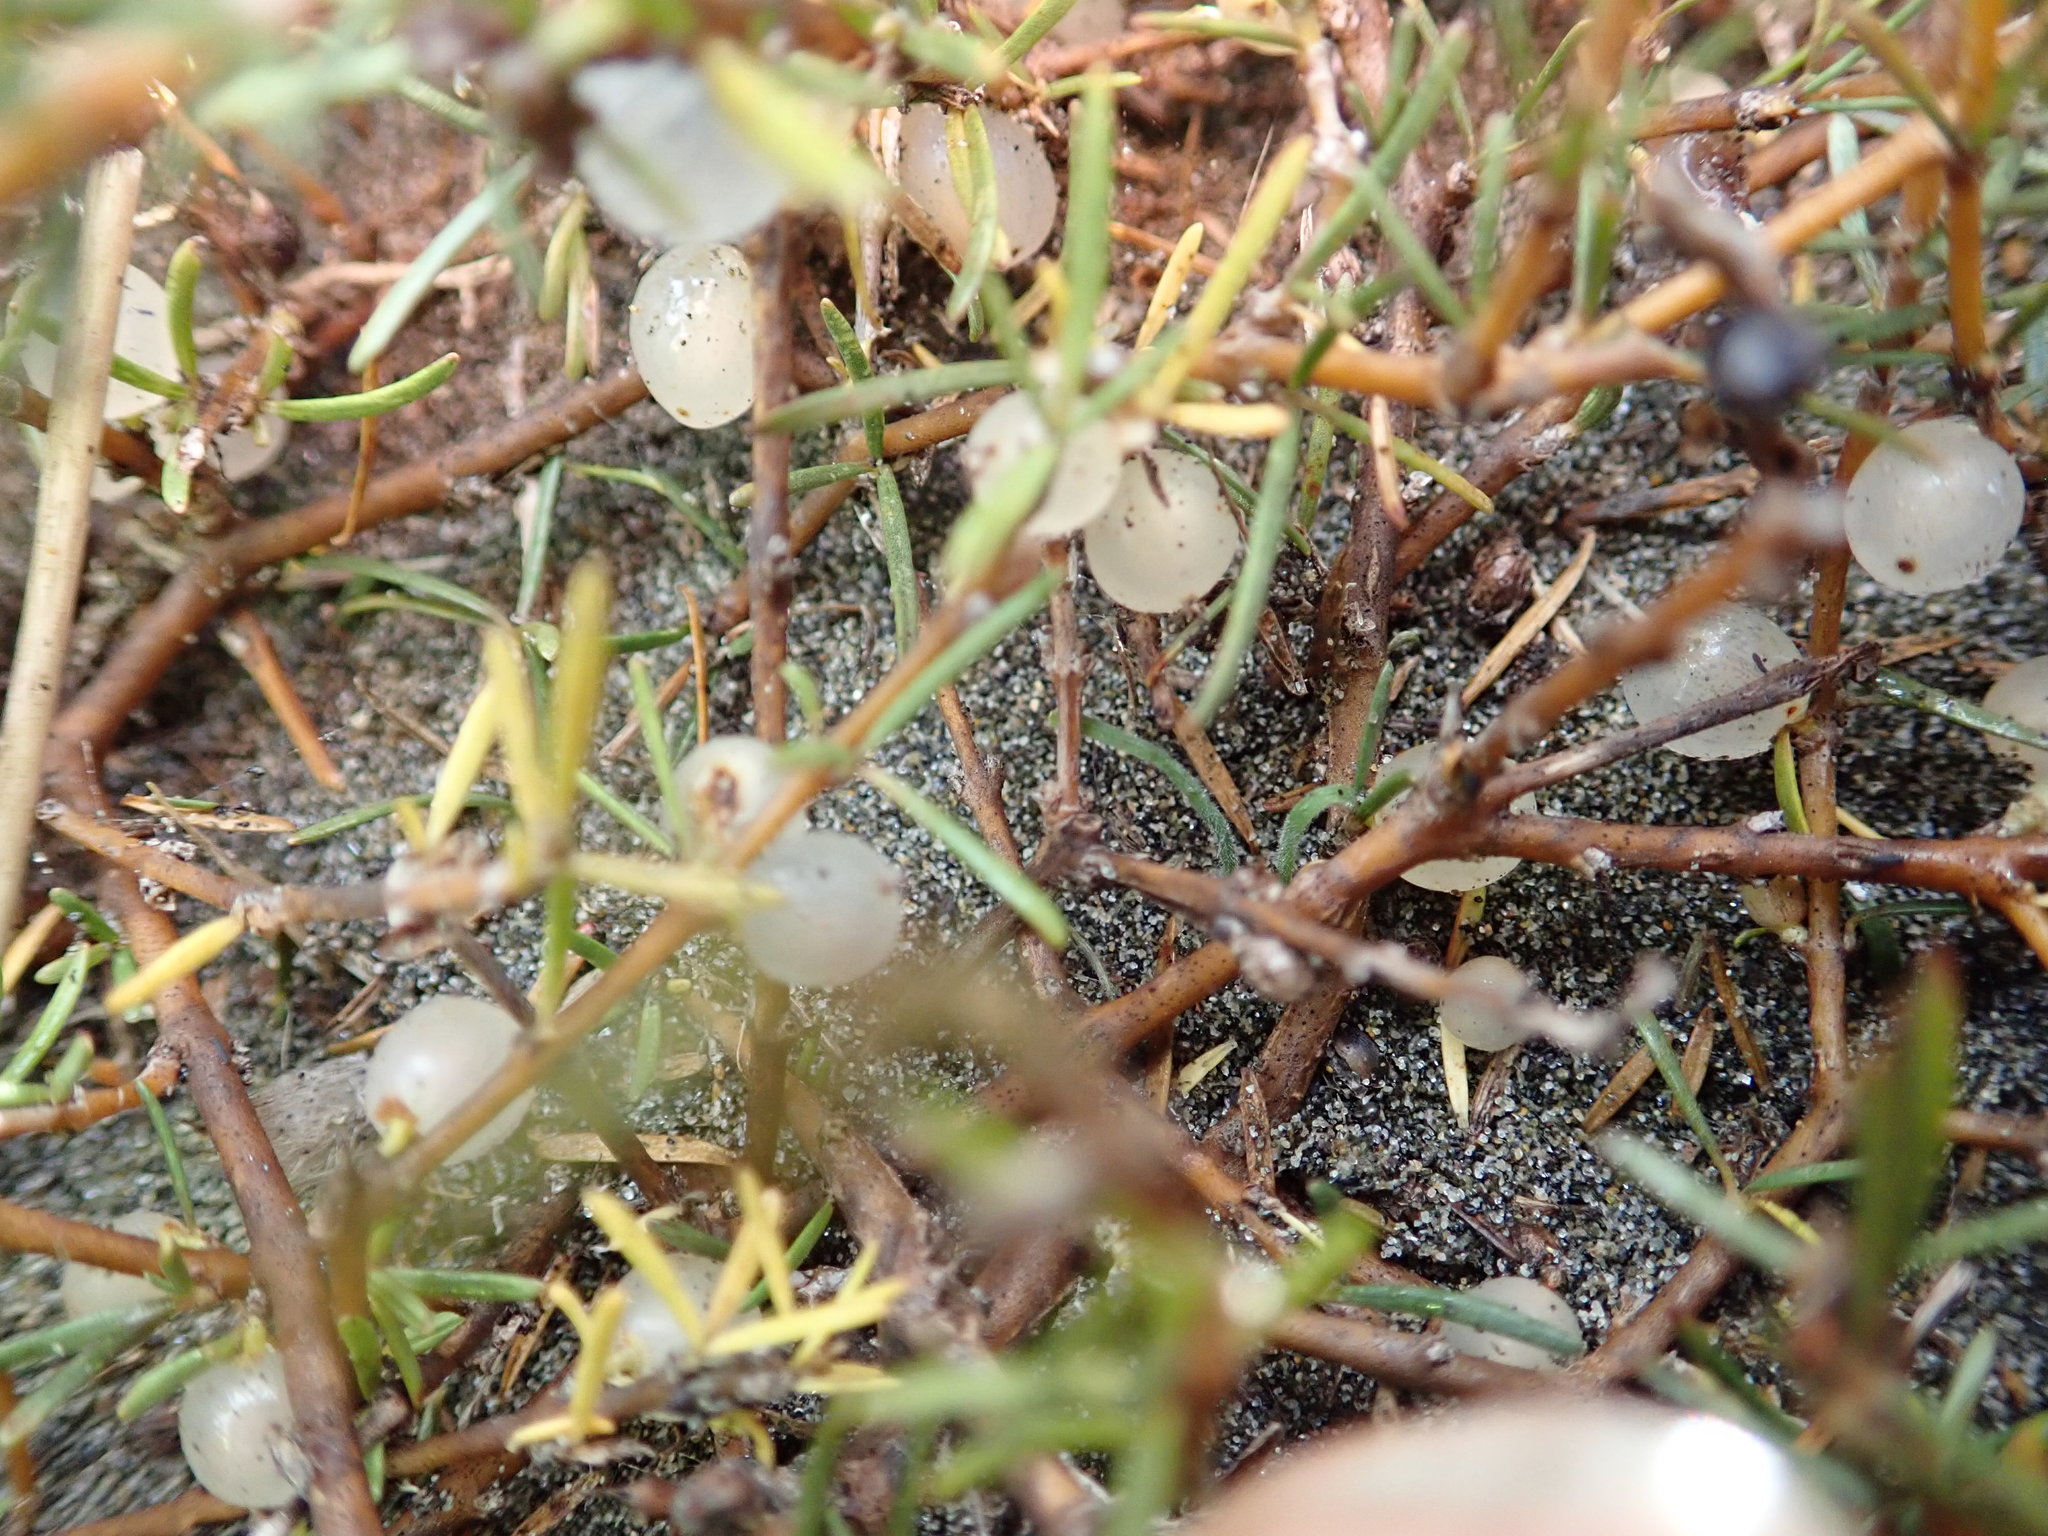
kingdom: Plantae
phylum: Tracheophyta
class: Magnoliopsida
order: Gentianales
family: Rubiaceae
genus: Coprosma
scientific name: Coprosma acerosa
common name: Sand coprosma
